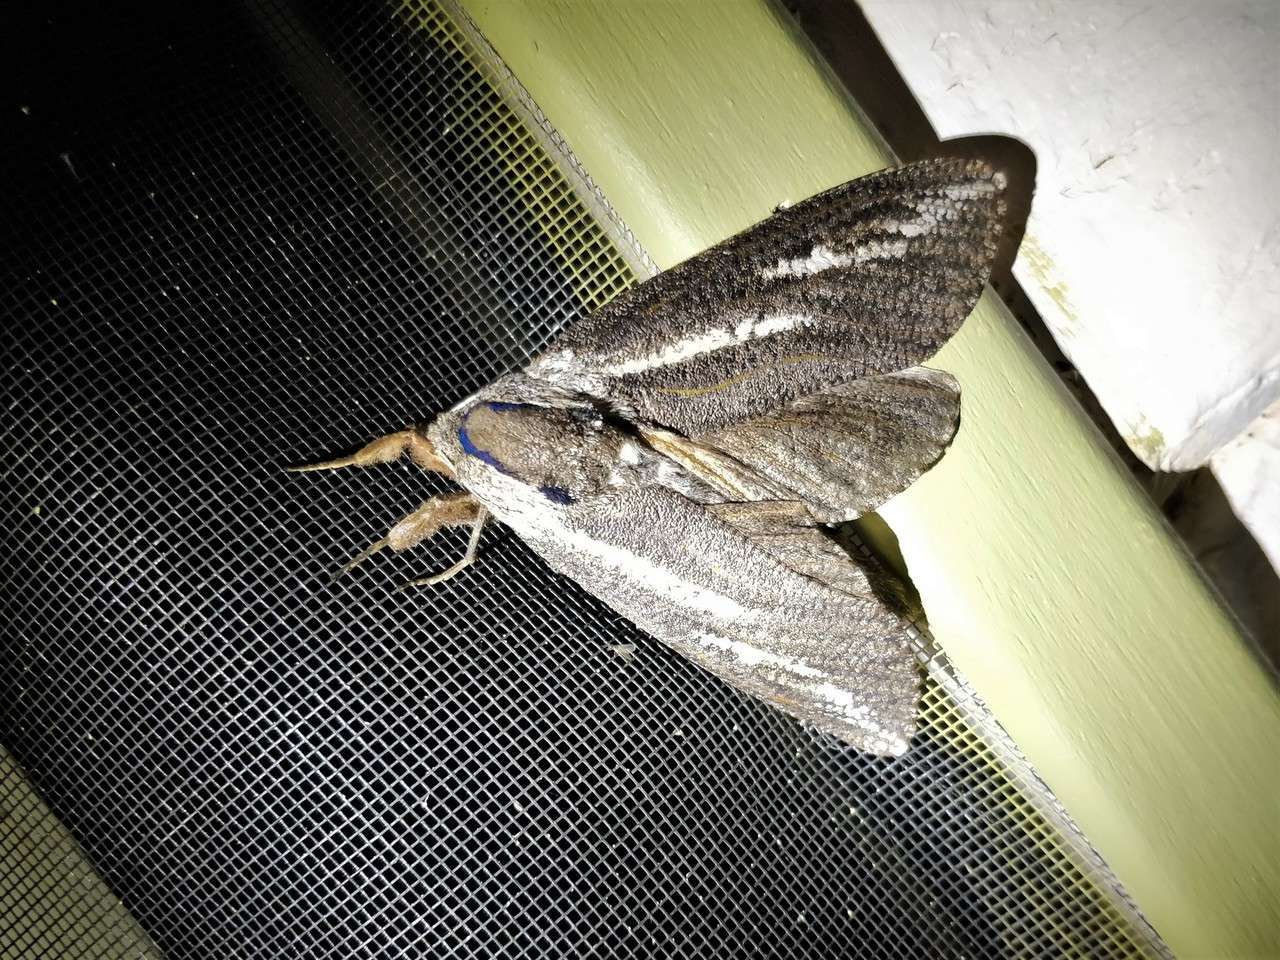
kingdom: Animalia
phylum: Arthropoda
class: Insecta
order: Lepidoptera
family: Cossidae
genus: Endoxyla
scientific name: Endoxyla leucomochla
